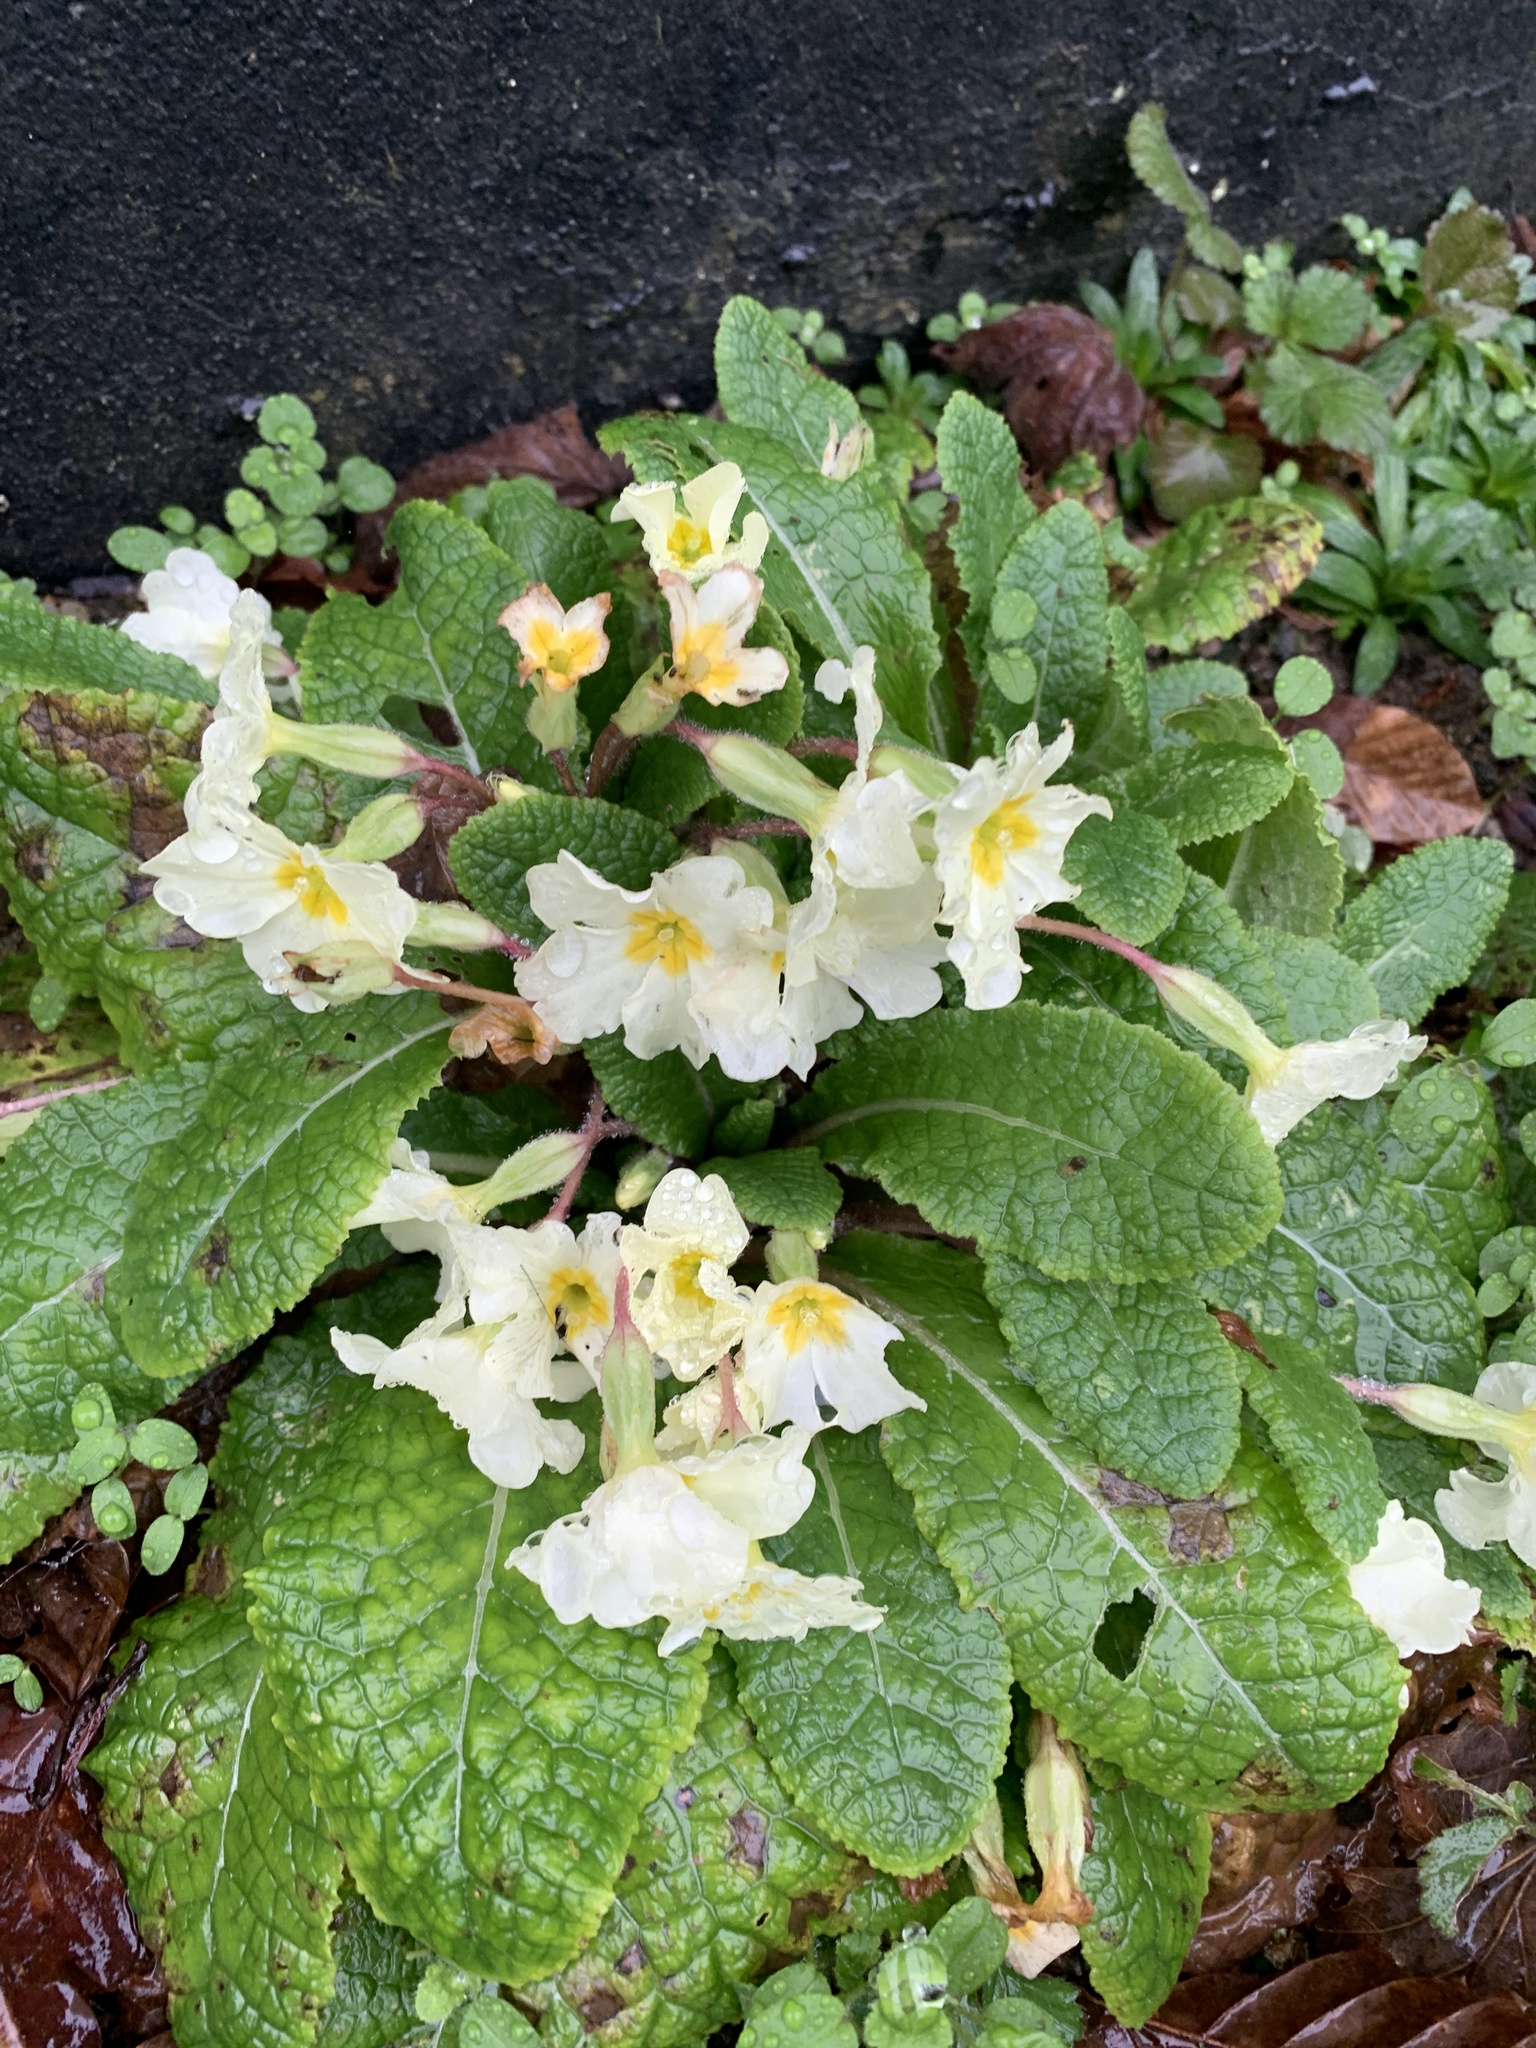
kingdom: Plantae
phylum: Tracheophyta
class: Magnoliopsida
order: Ericales
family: Primulaceae
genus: Primula
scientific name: Primula vulgaris
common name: Primrose
